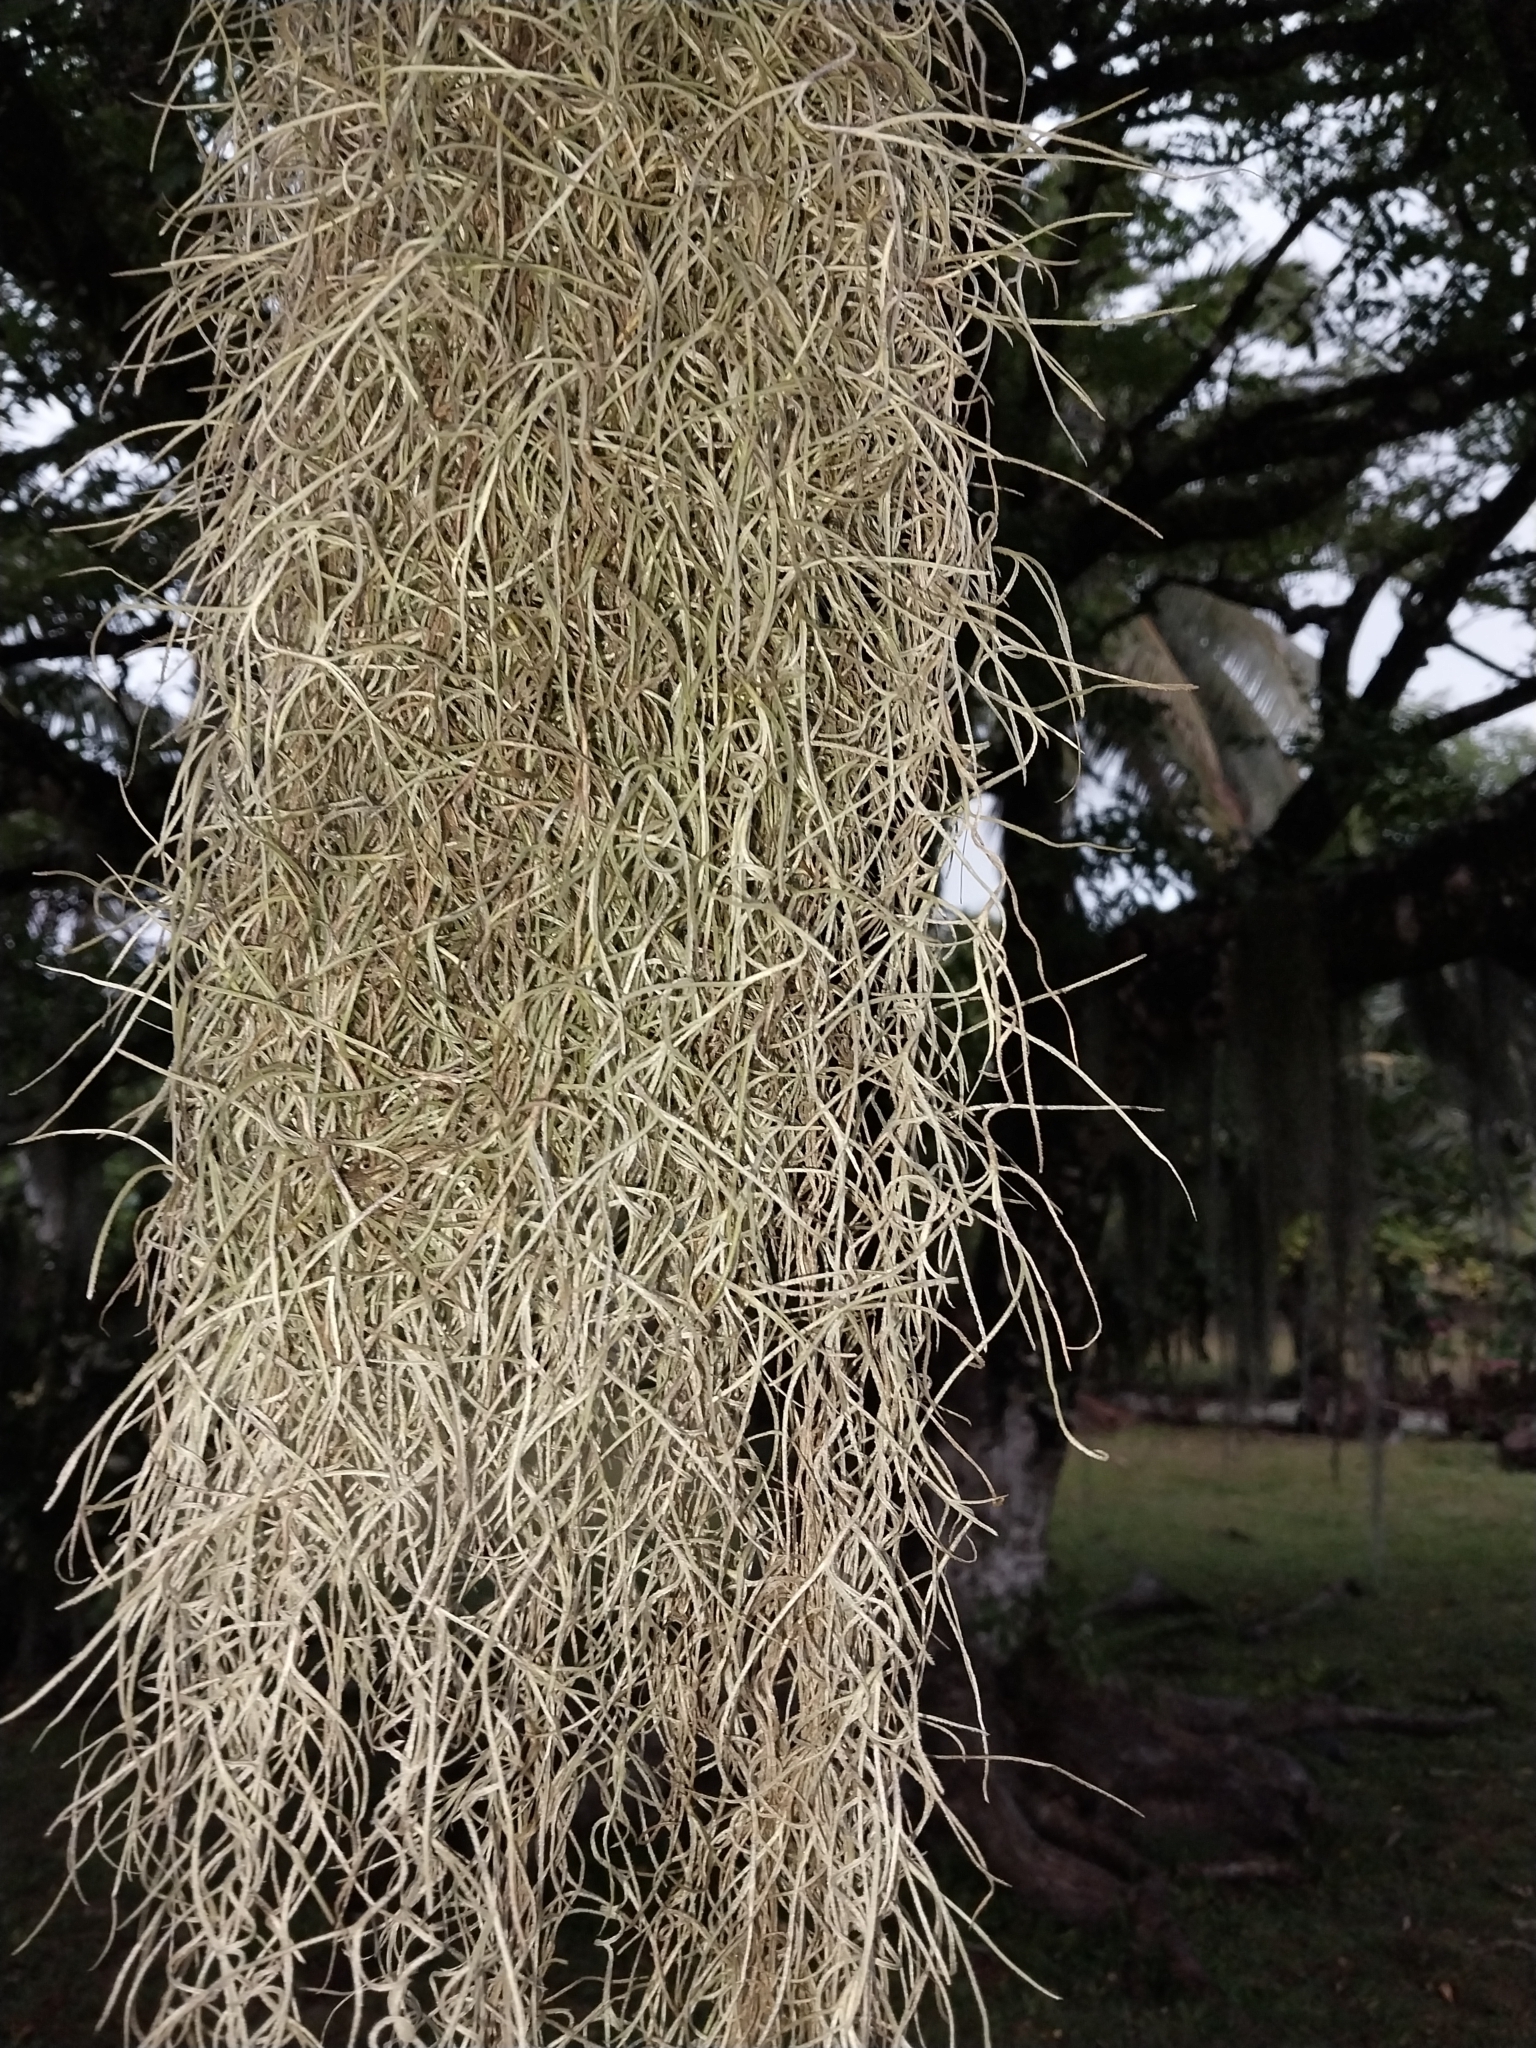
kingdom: Plantae
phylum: Tracheophyta
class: Liliopsida
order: Poales
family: Bromeliaceae
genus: Tillandsia
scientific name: Tillandsia usneoides
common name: Spanish moss
